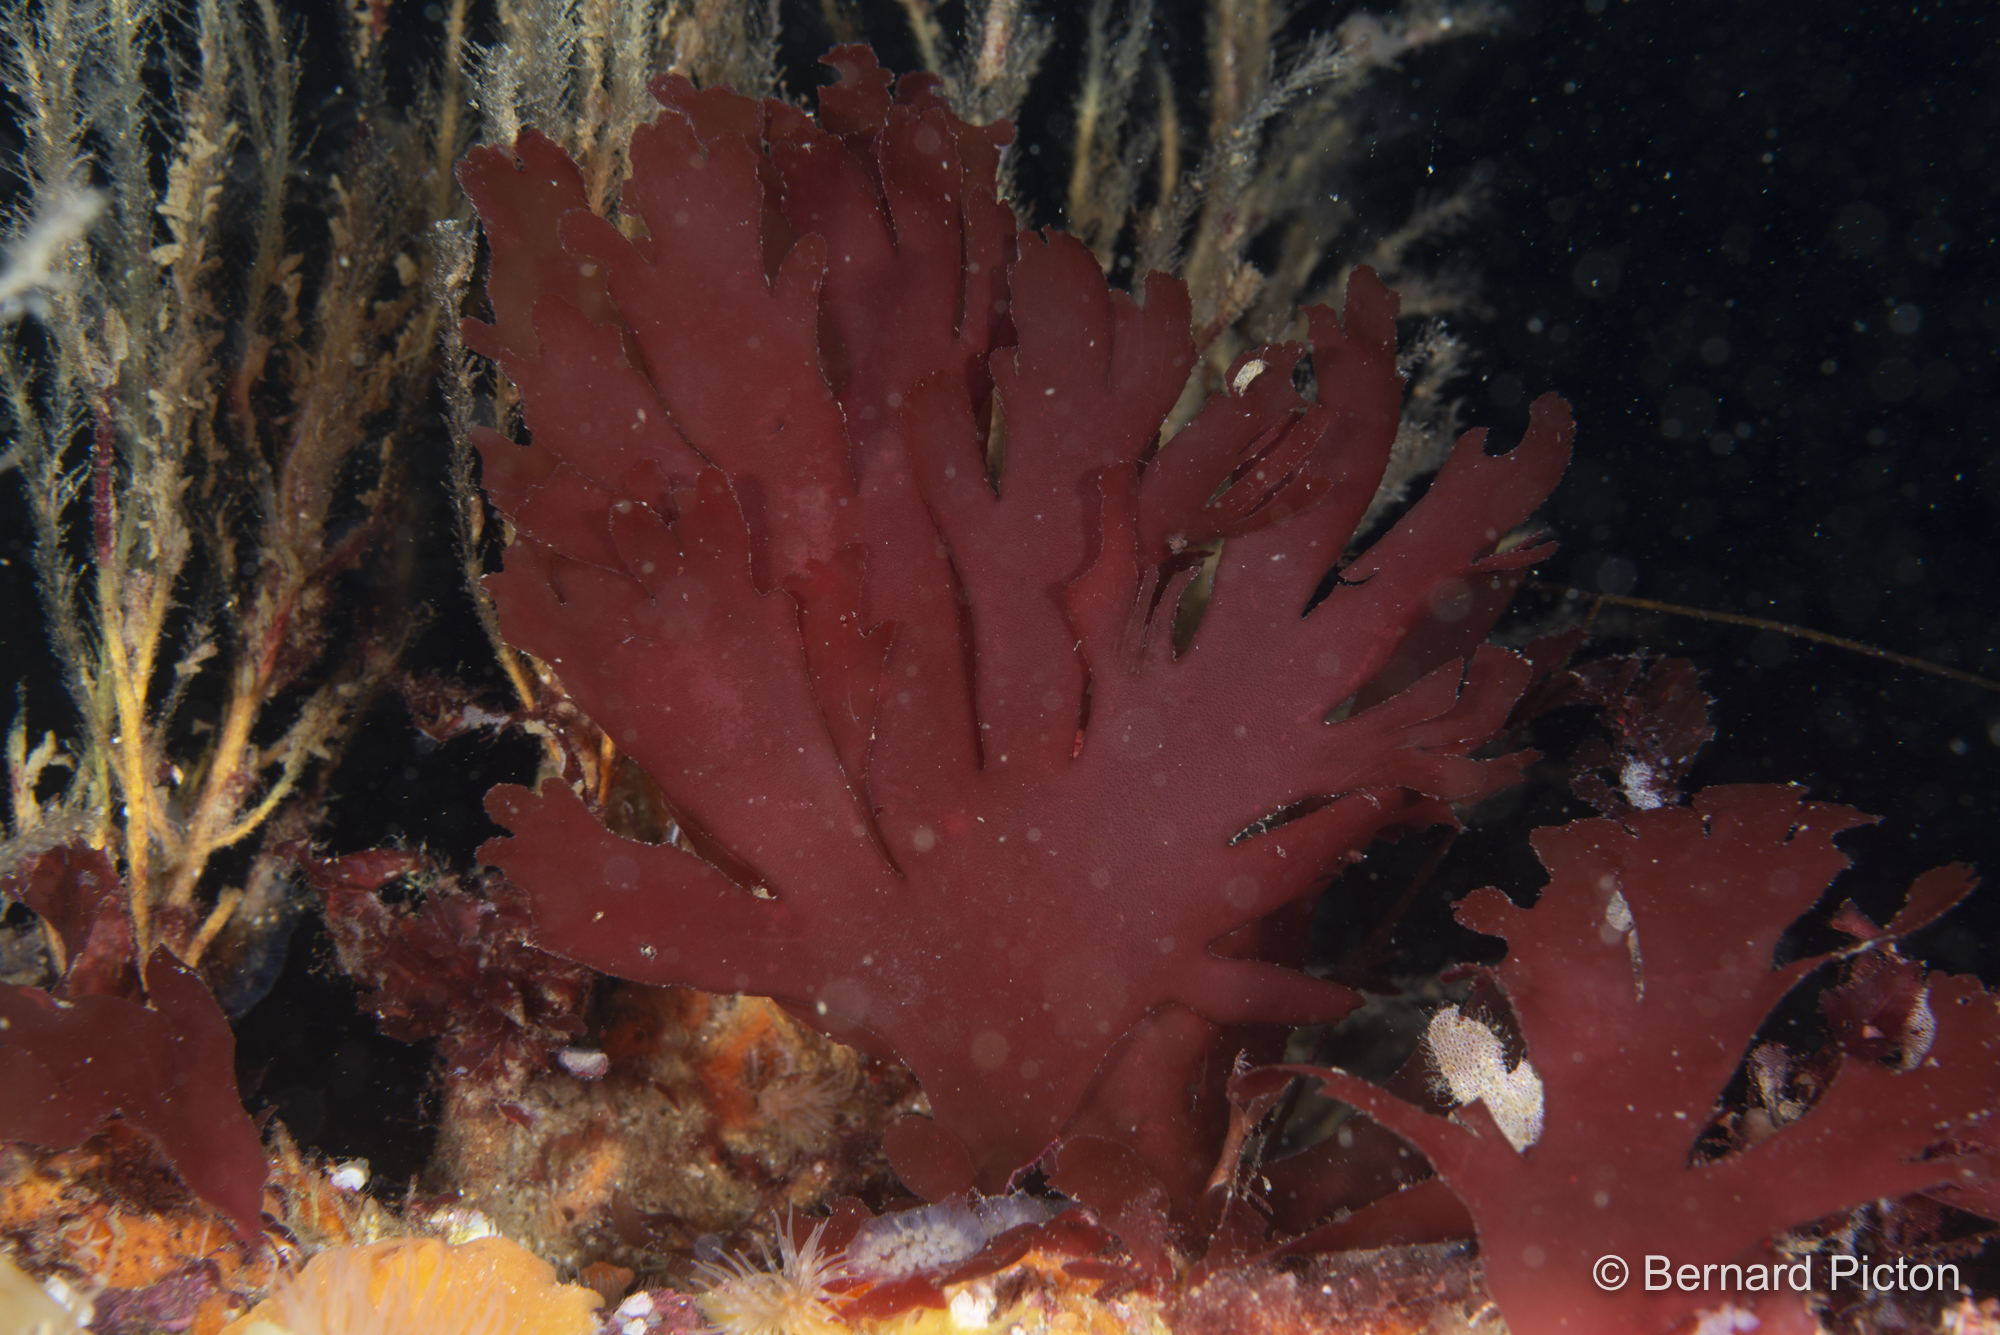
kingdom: Plantae
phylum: Rhodophyta
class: Florideophyceae
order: Gigartinales
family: Kallymeniaceae
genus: Metacallophyllis
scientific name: Metacallophyllis spec
